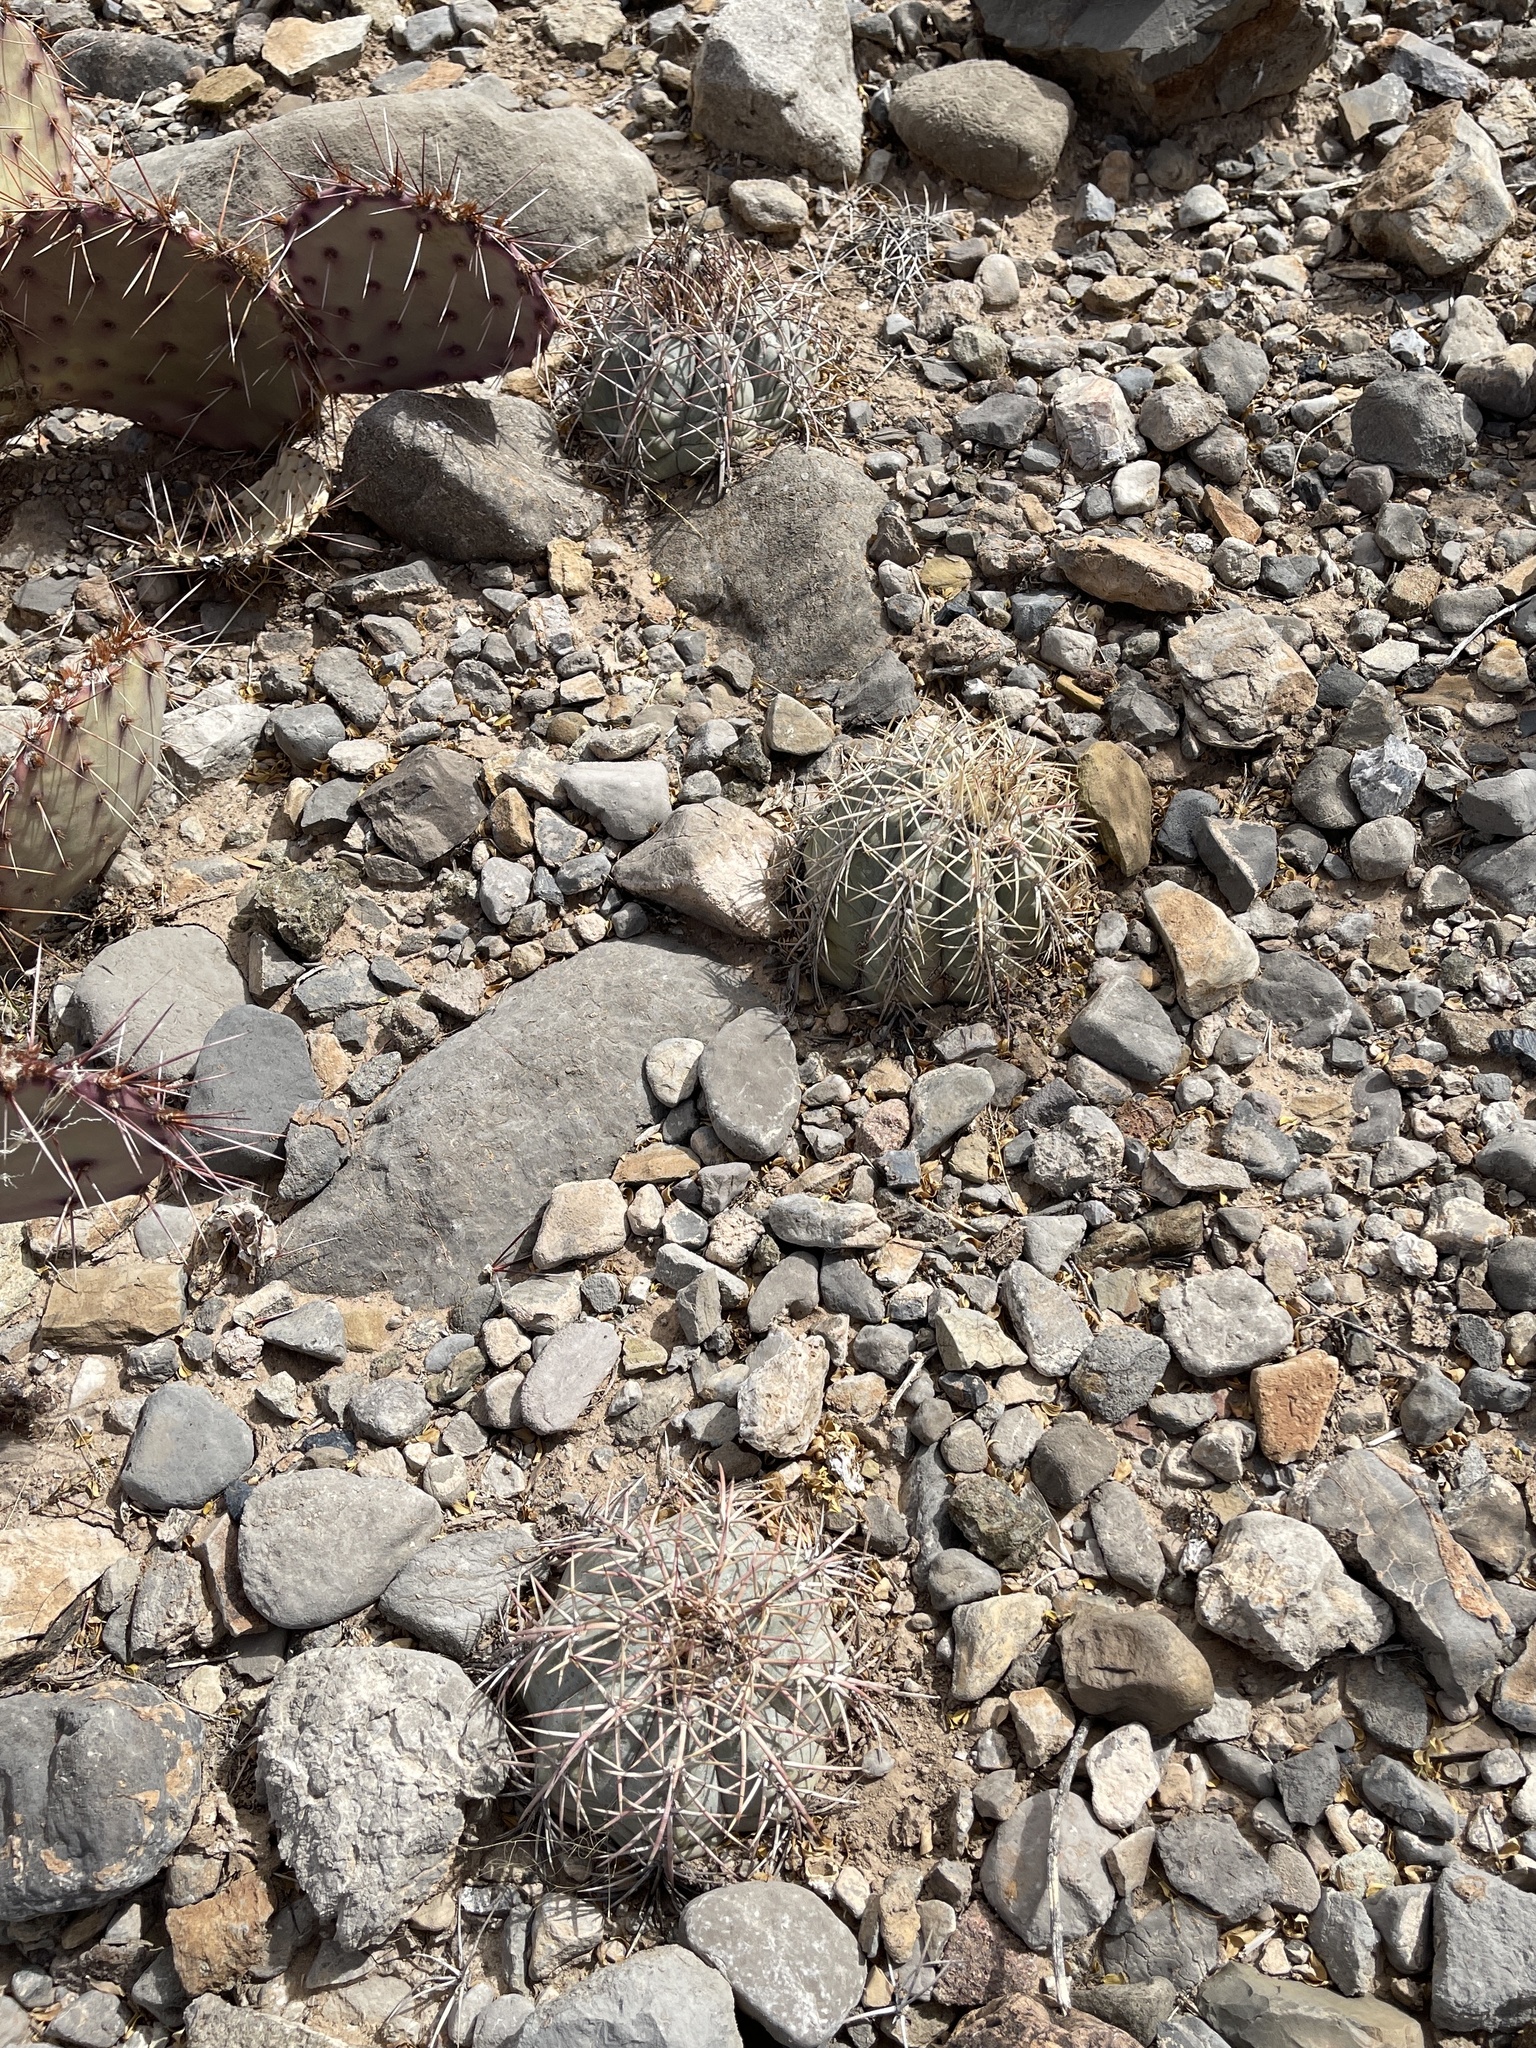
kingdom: Plantae
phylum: Tracheophyta
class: Magnoliopsida
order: Caryophyllales
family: Cactaceae
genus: Echinocactus
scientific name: Echinocactus horizonthalonius
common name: Devilshead
